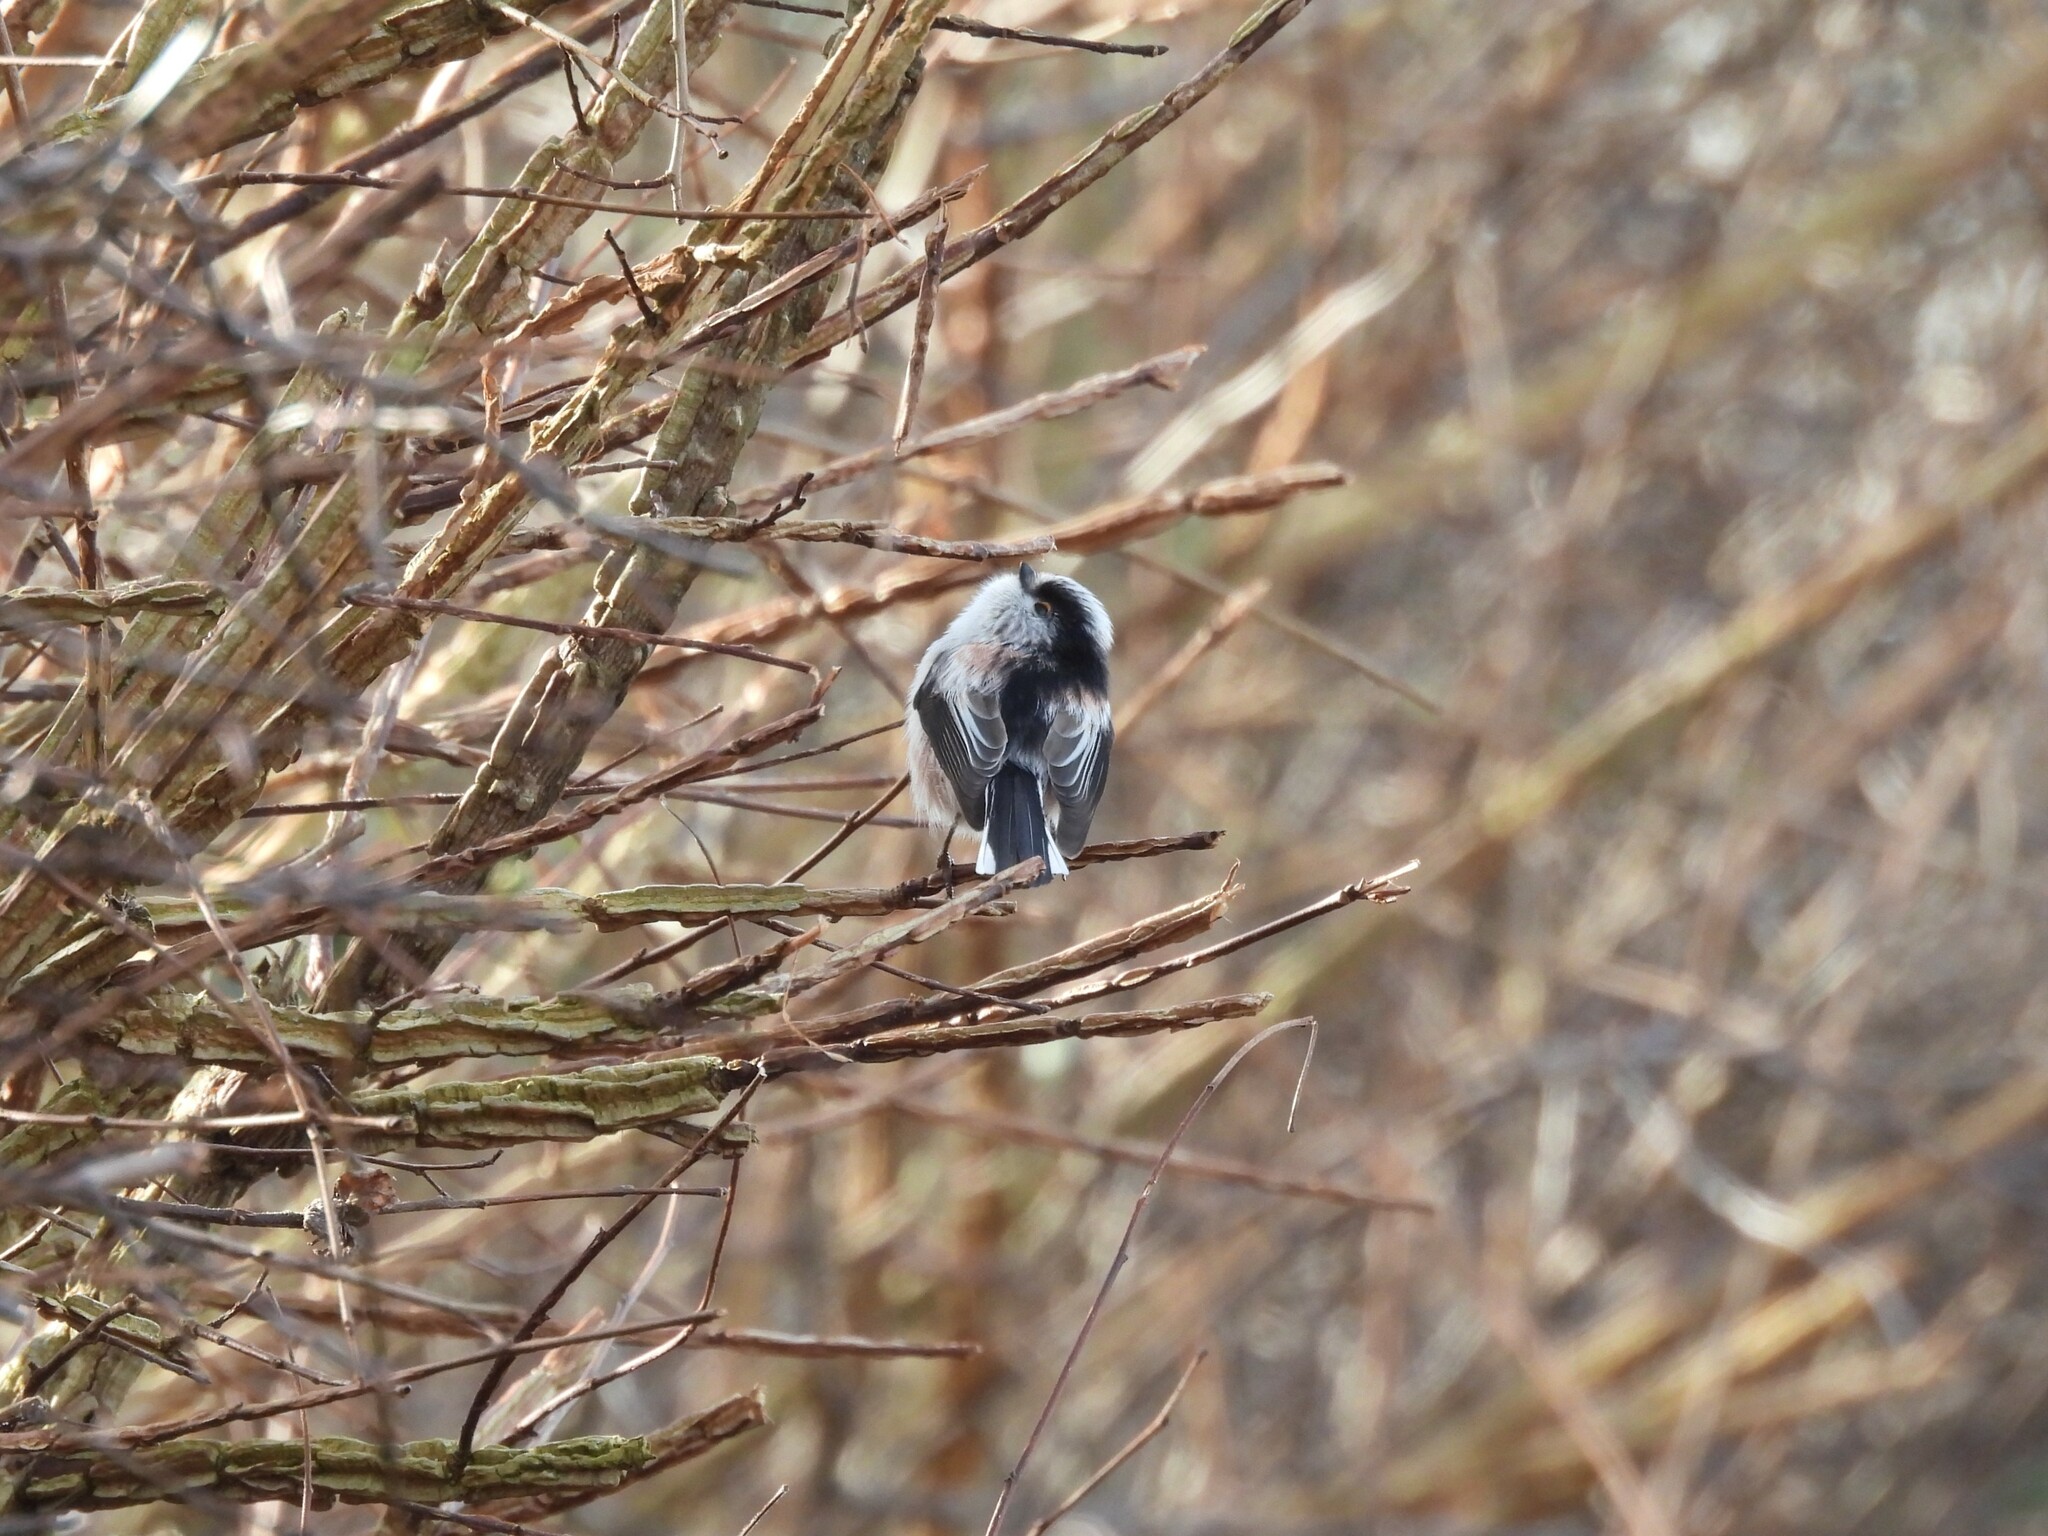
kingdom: Animalia
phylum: Chordata
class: Aves
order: Passeriformes
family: Aegithalidae
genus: Aegithalos
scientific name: Aegithalos caudatus
